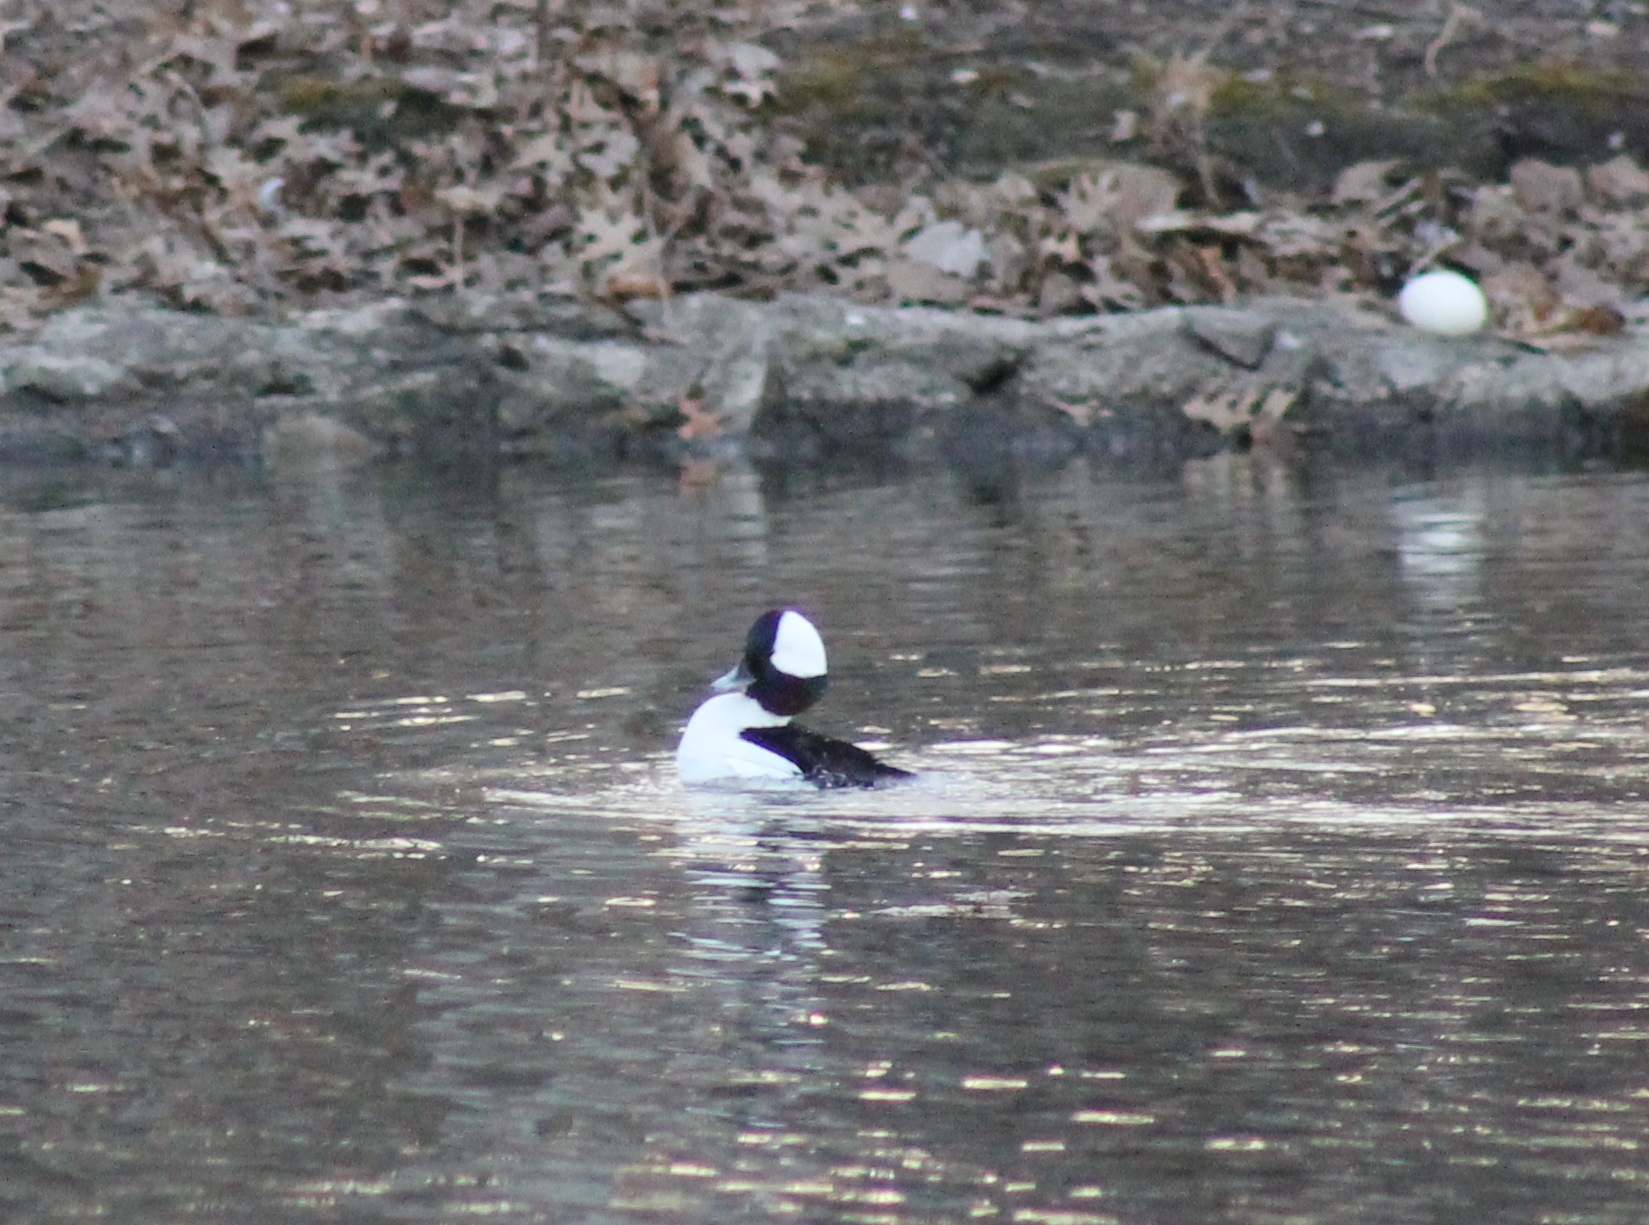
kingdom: Animalia
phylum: Chordata
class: Aves
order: Anseriformes
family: Anatidae
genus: Bucephala
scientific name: Bucephala albeola
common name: Bufflehead
